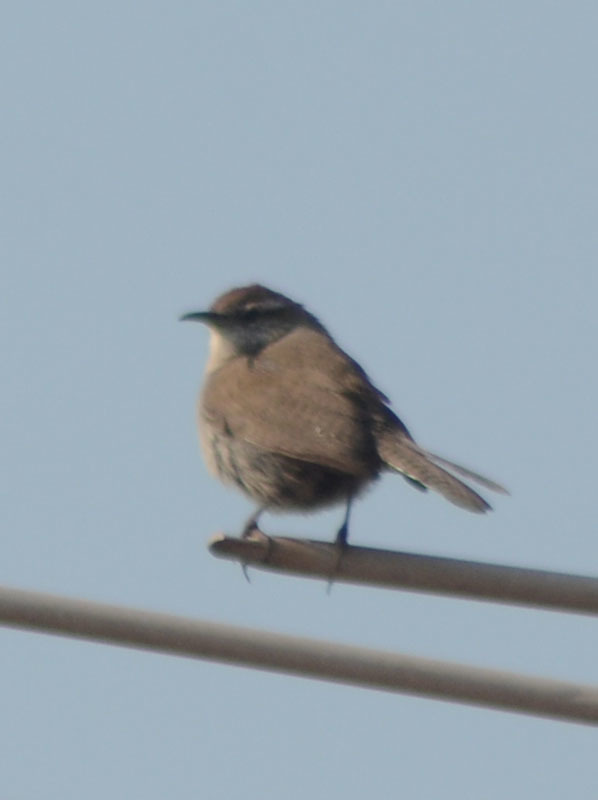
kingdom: Animalia
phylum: Chordata
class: Aves
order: Passeriformes
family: Troglodytidae
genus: Thryomanes
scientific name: Thryomanes bewickii
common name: Bewick's wren
